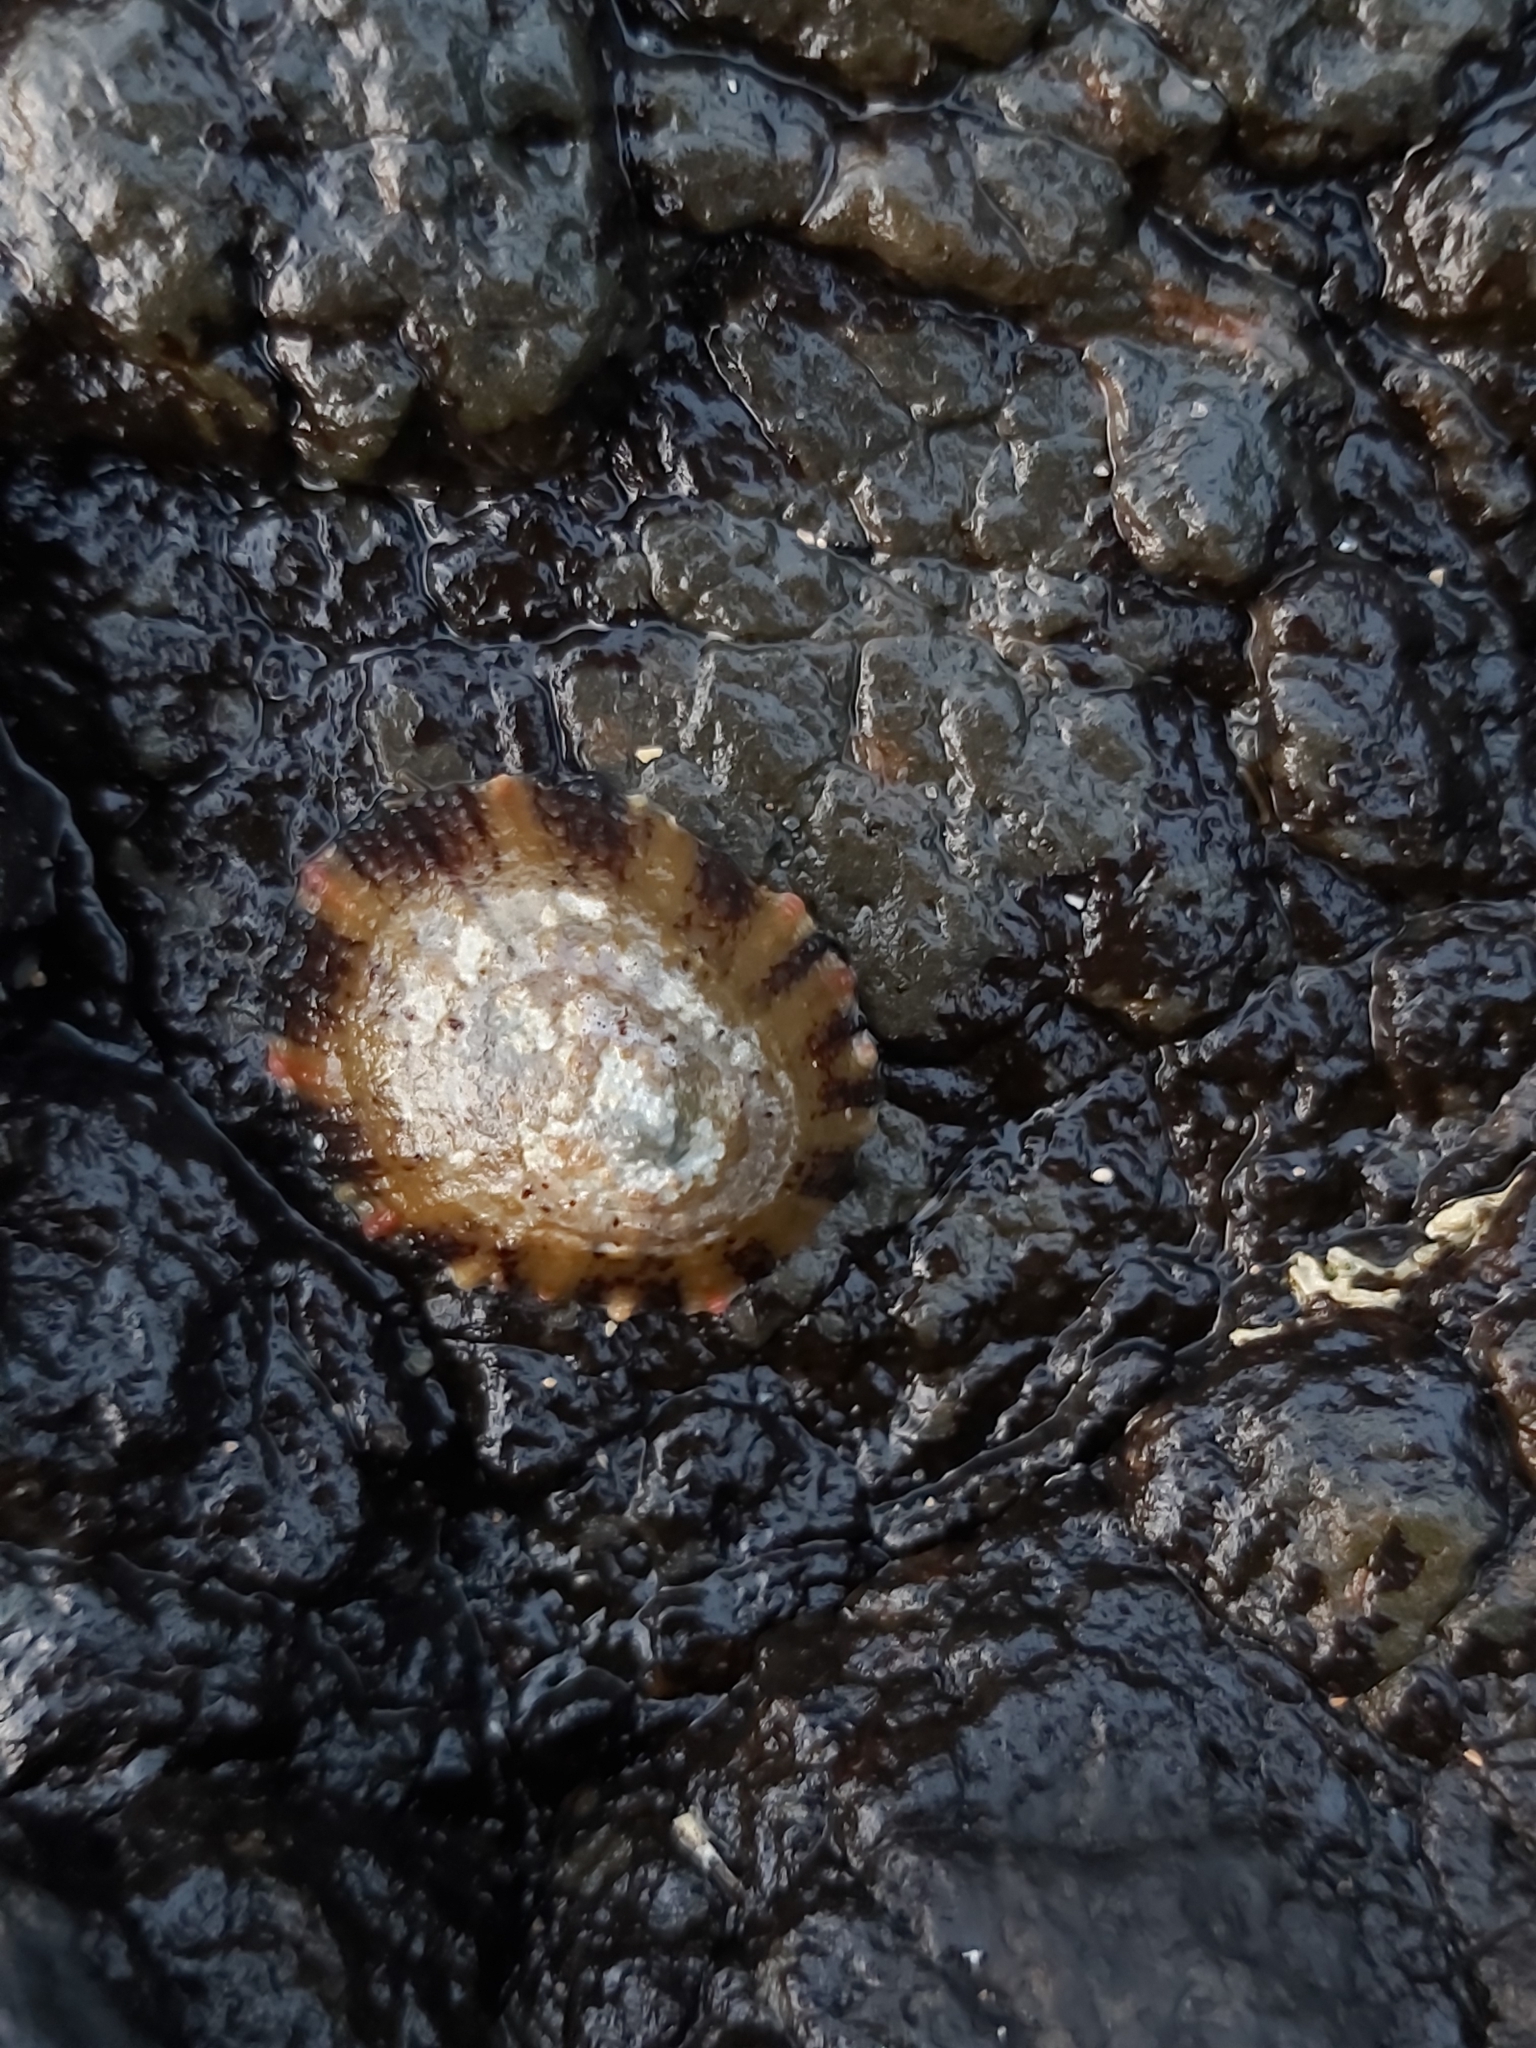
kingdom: Animalia
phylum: Mollusca
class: Gastropoda
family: Nacellidae
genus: Cellana
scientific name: Cellana tramoserica
